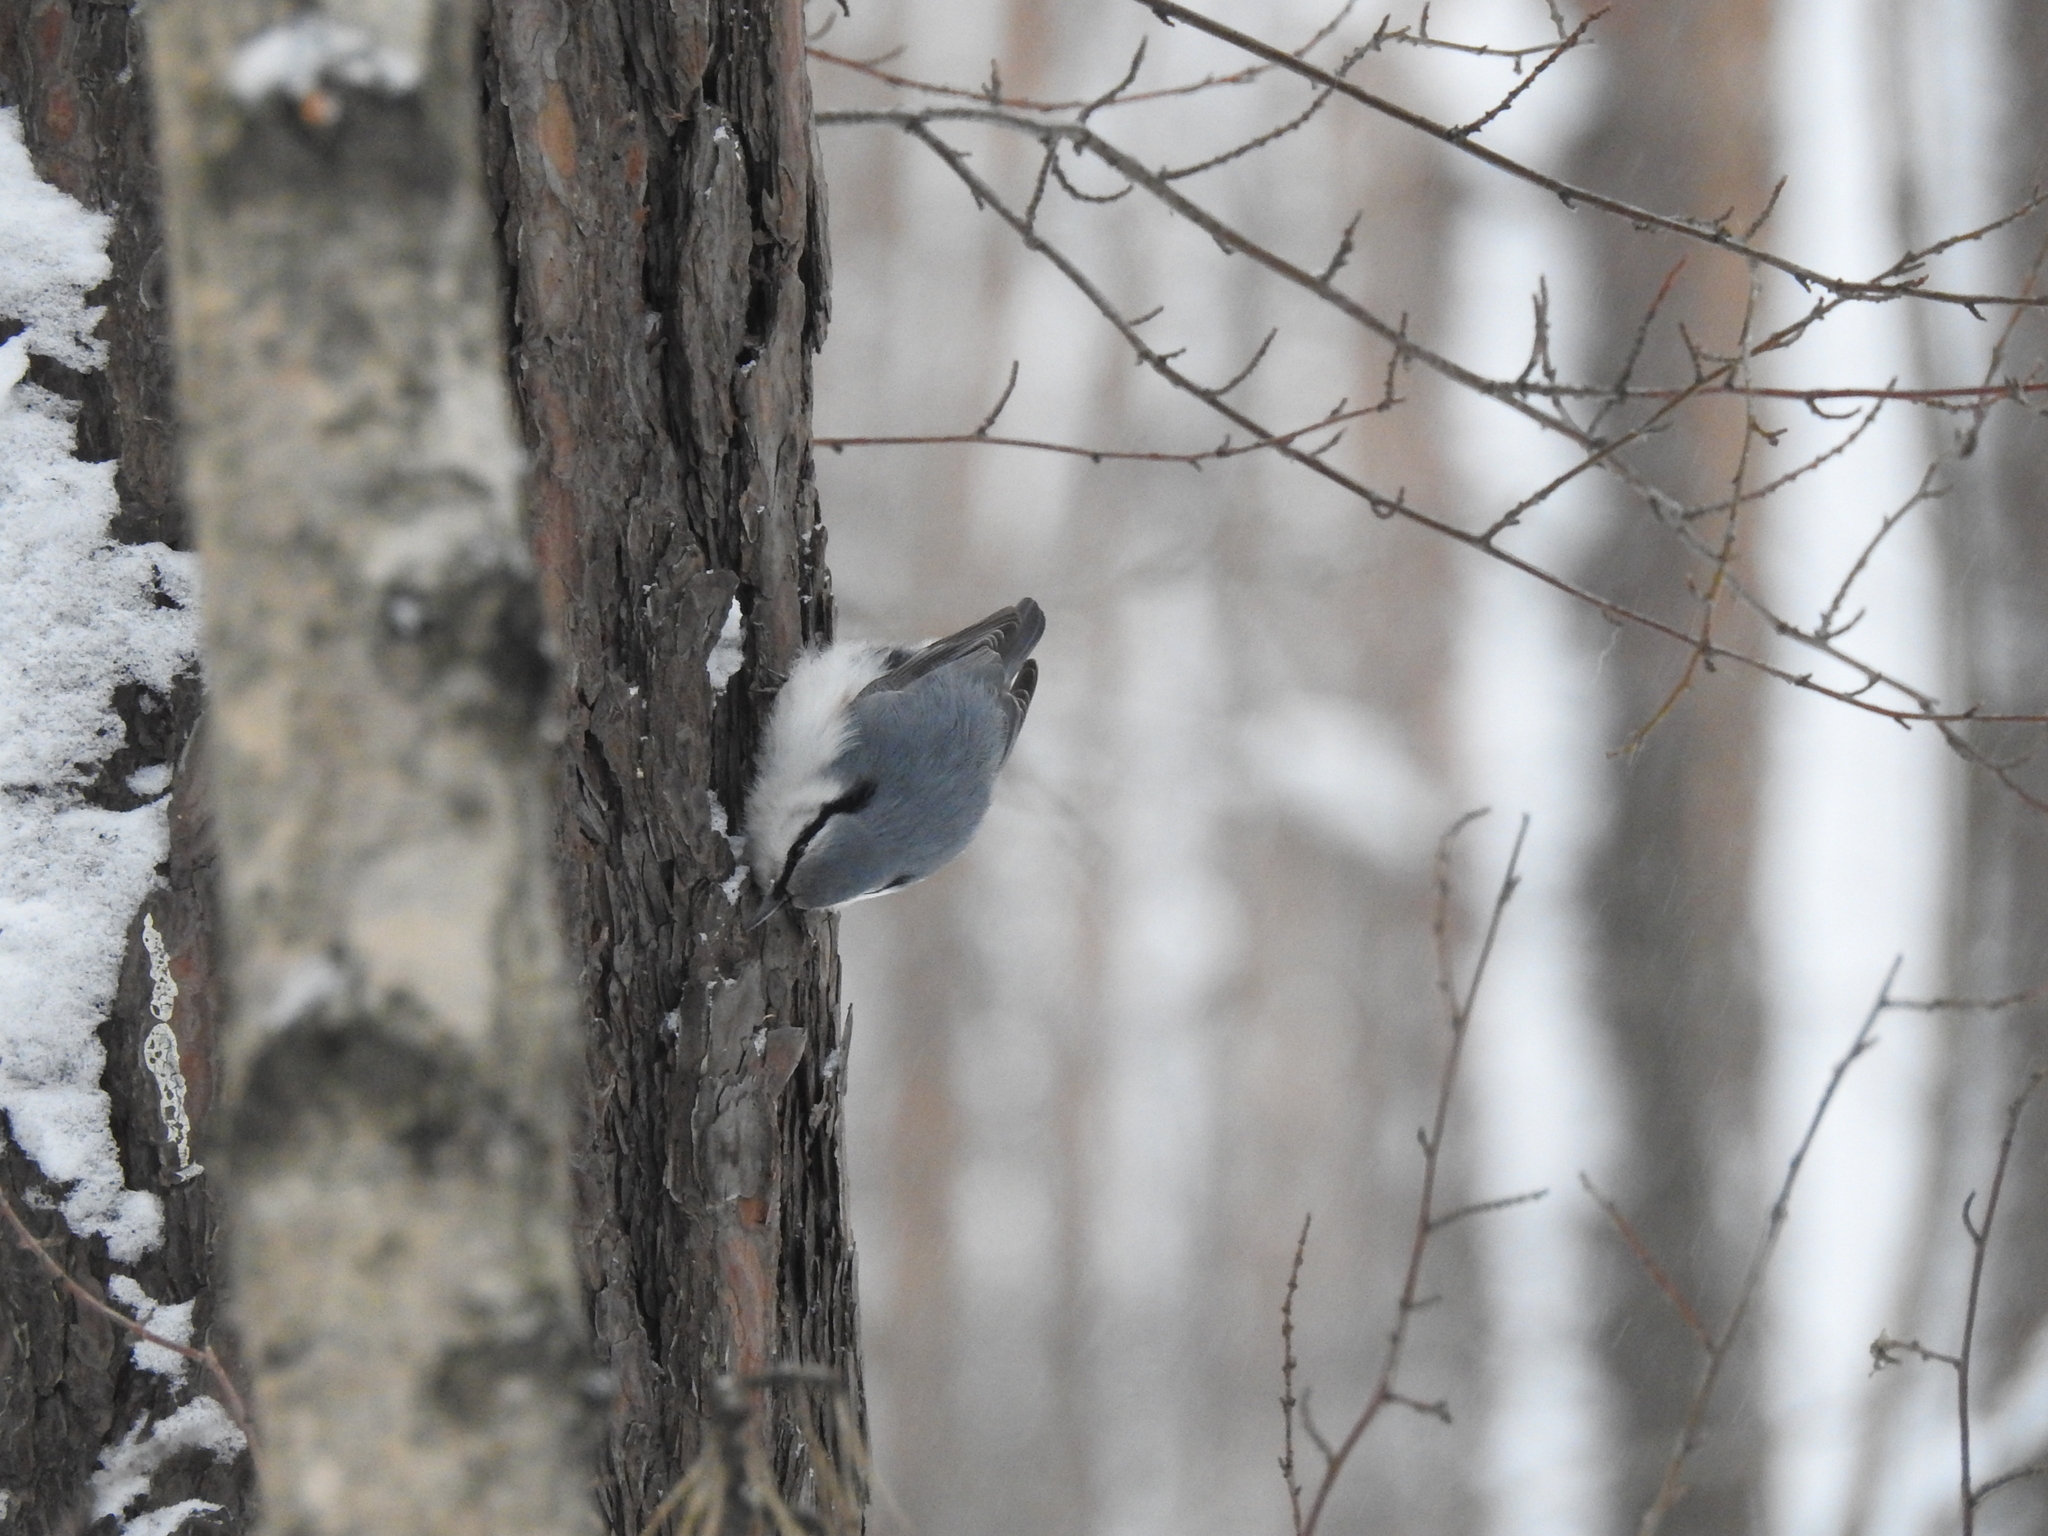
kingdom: Animalia
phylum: Chordata
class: Aves
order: Passeriformes
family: Sittidae
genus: Sitta
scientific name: Sitta europaea
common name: Eurasian nuthatch
